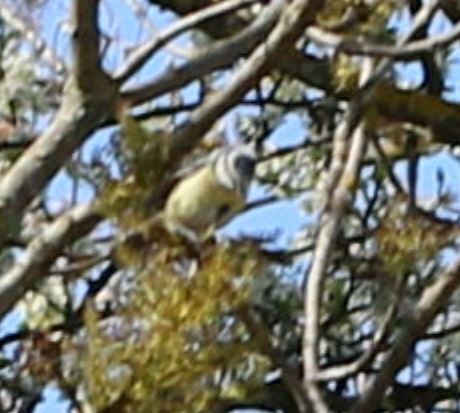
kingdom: Animalia
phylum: Chordata
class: Aves
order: Passeriformes
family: Paridae
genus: Cyanistes
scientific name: Cyanistes caeruleus
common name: Eurasian blue tit
